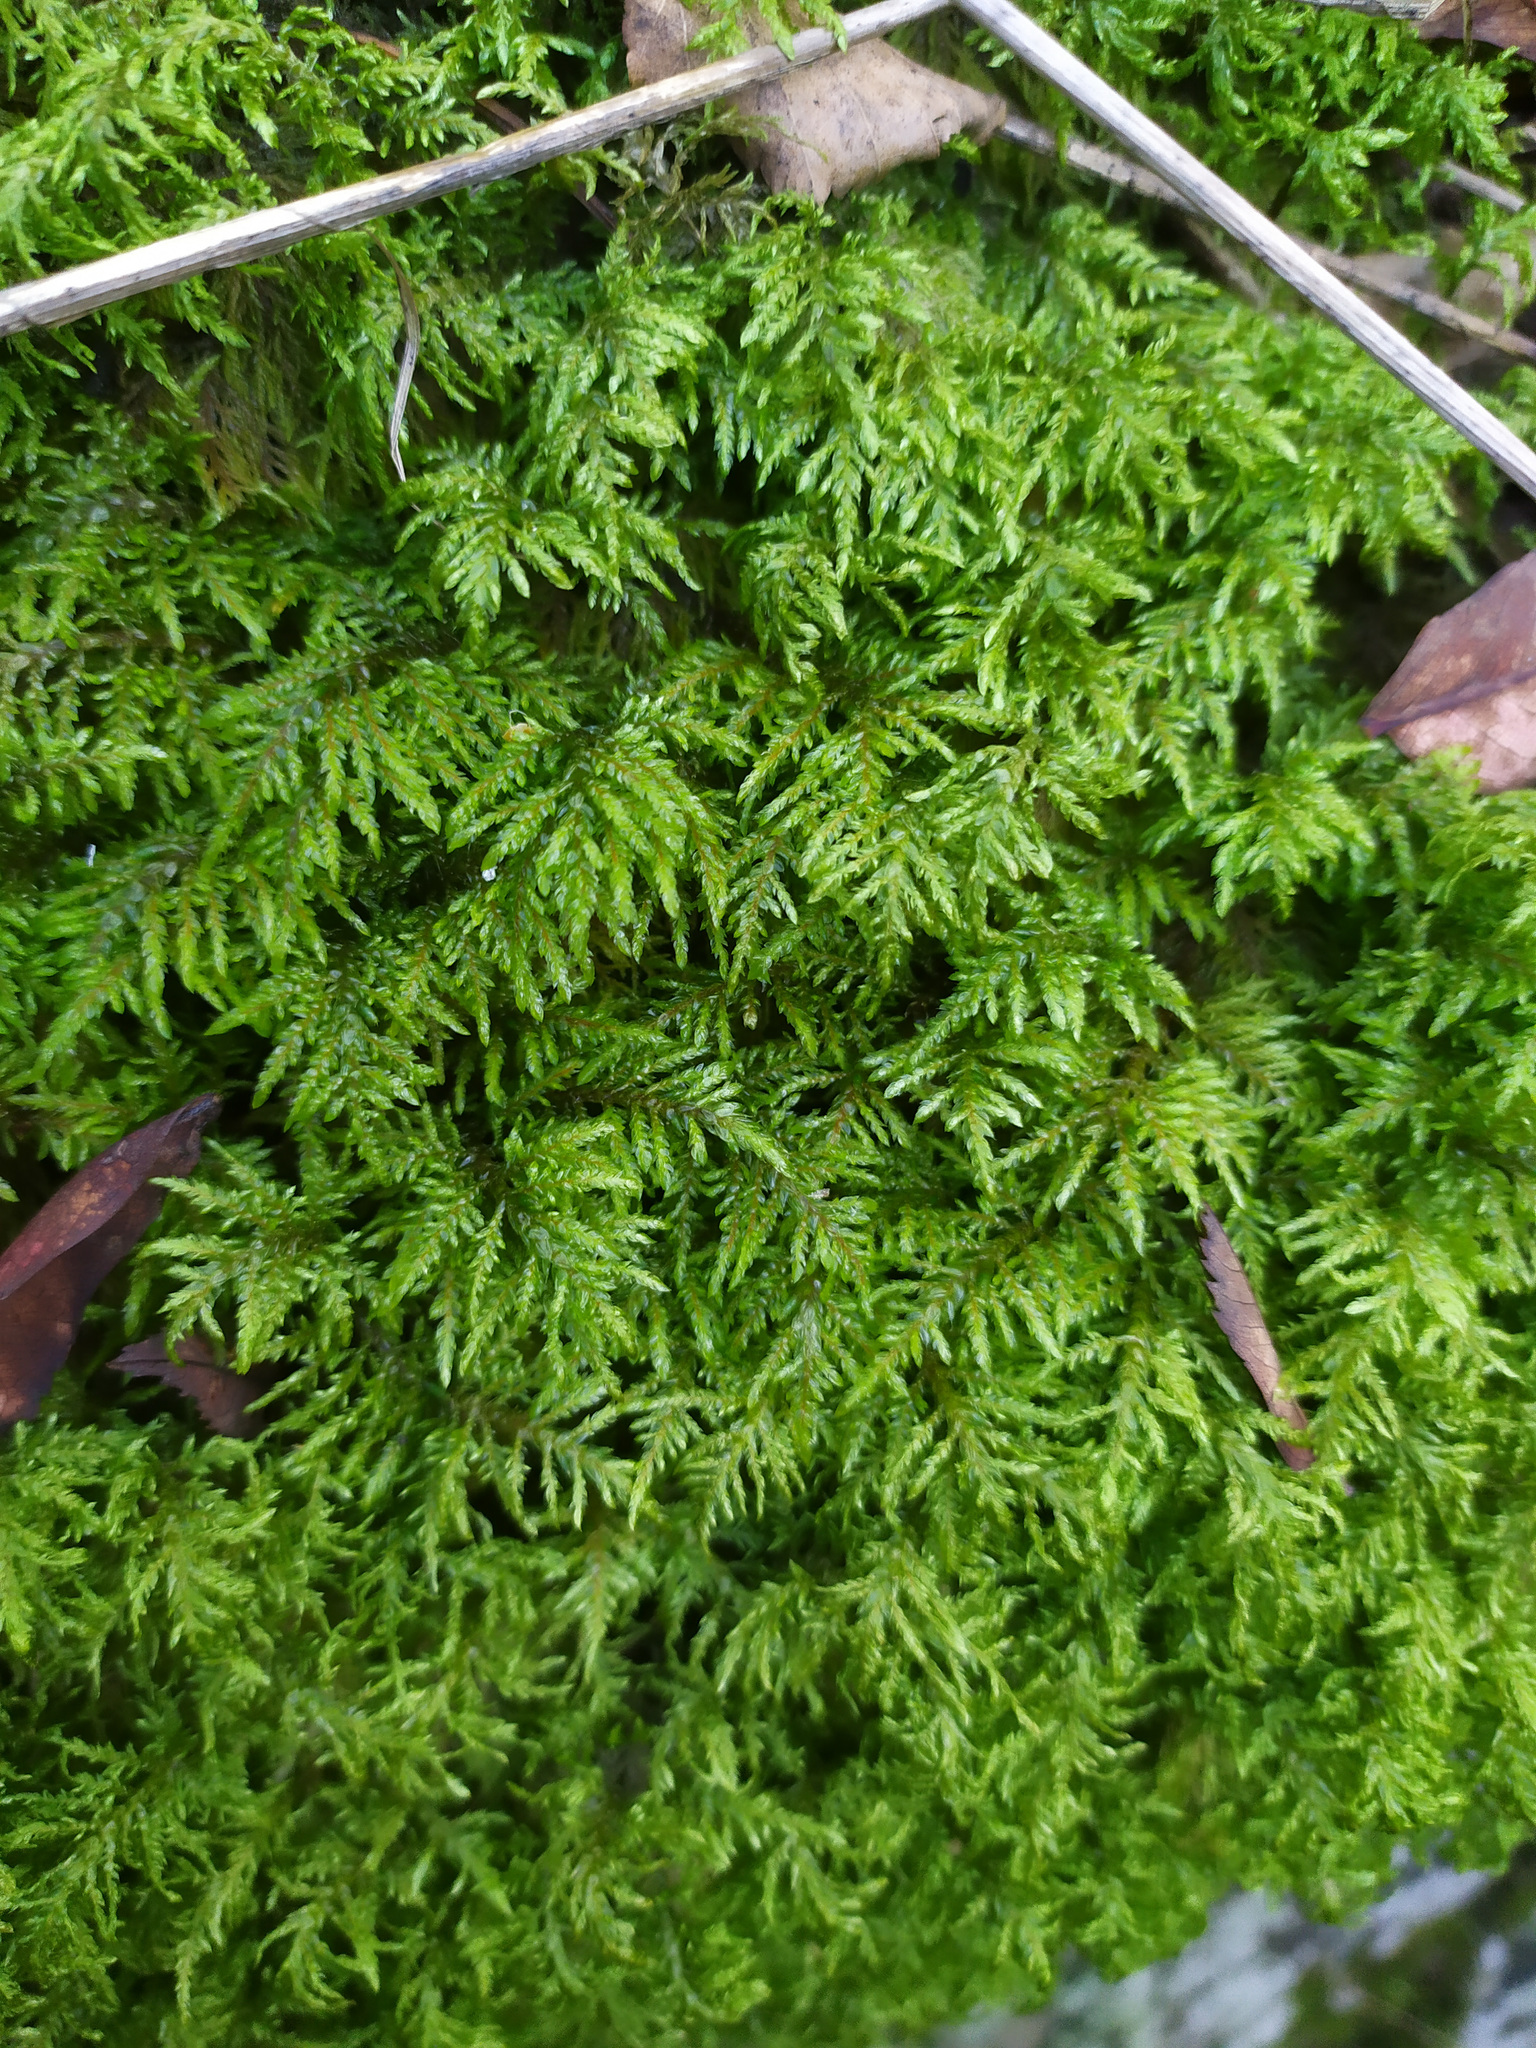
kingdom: Plantae
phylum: Bryophyta
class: Bryopsida
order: Hypnales
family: Hylocomiaceae
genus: Hylocomium
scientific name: Hylocomium splendens
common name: Stairstep moss
